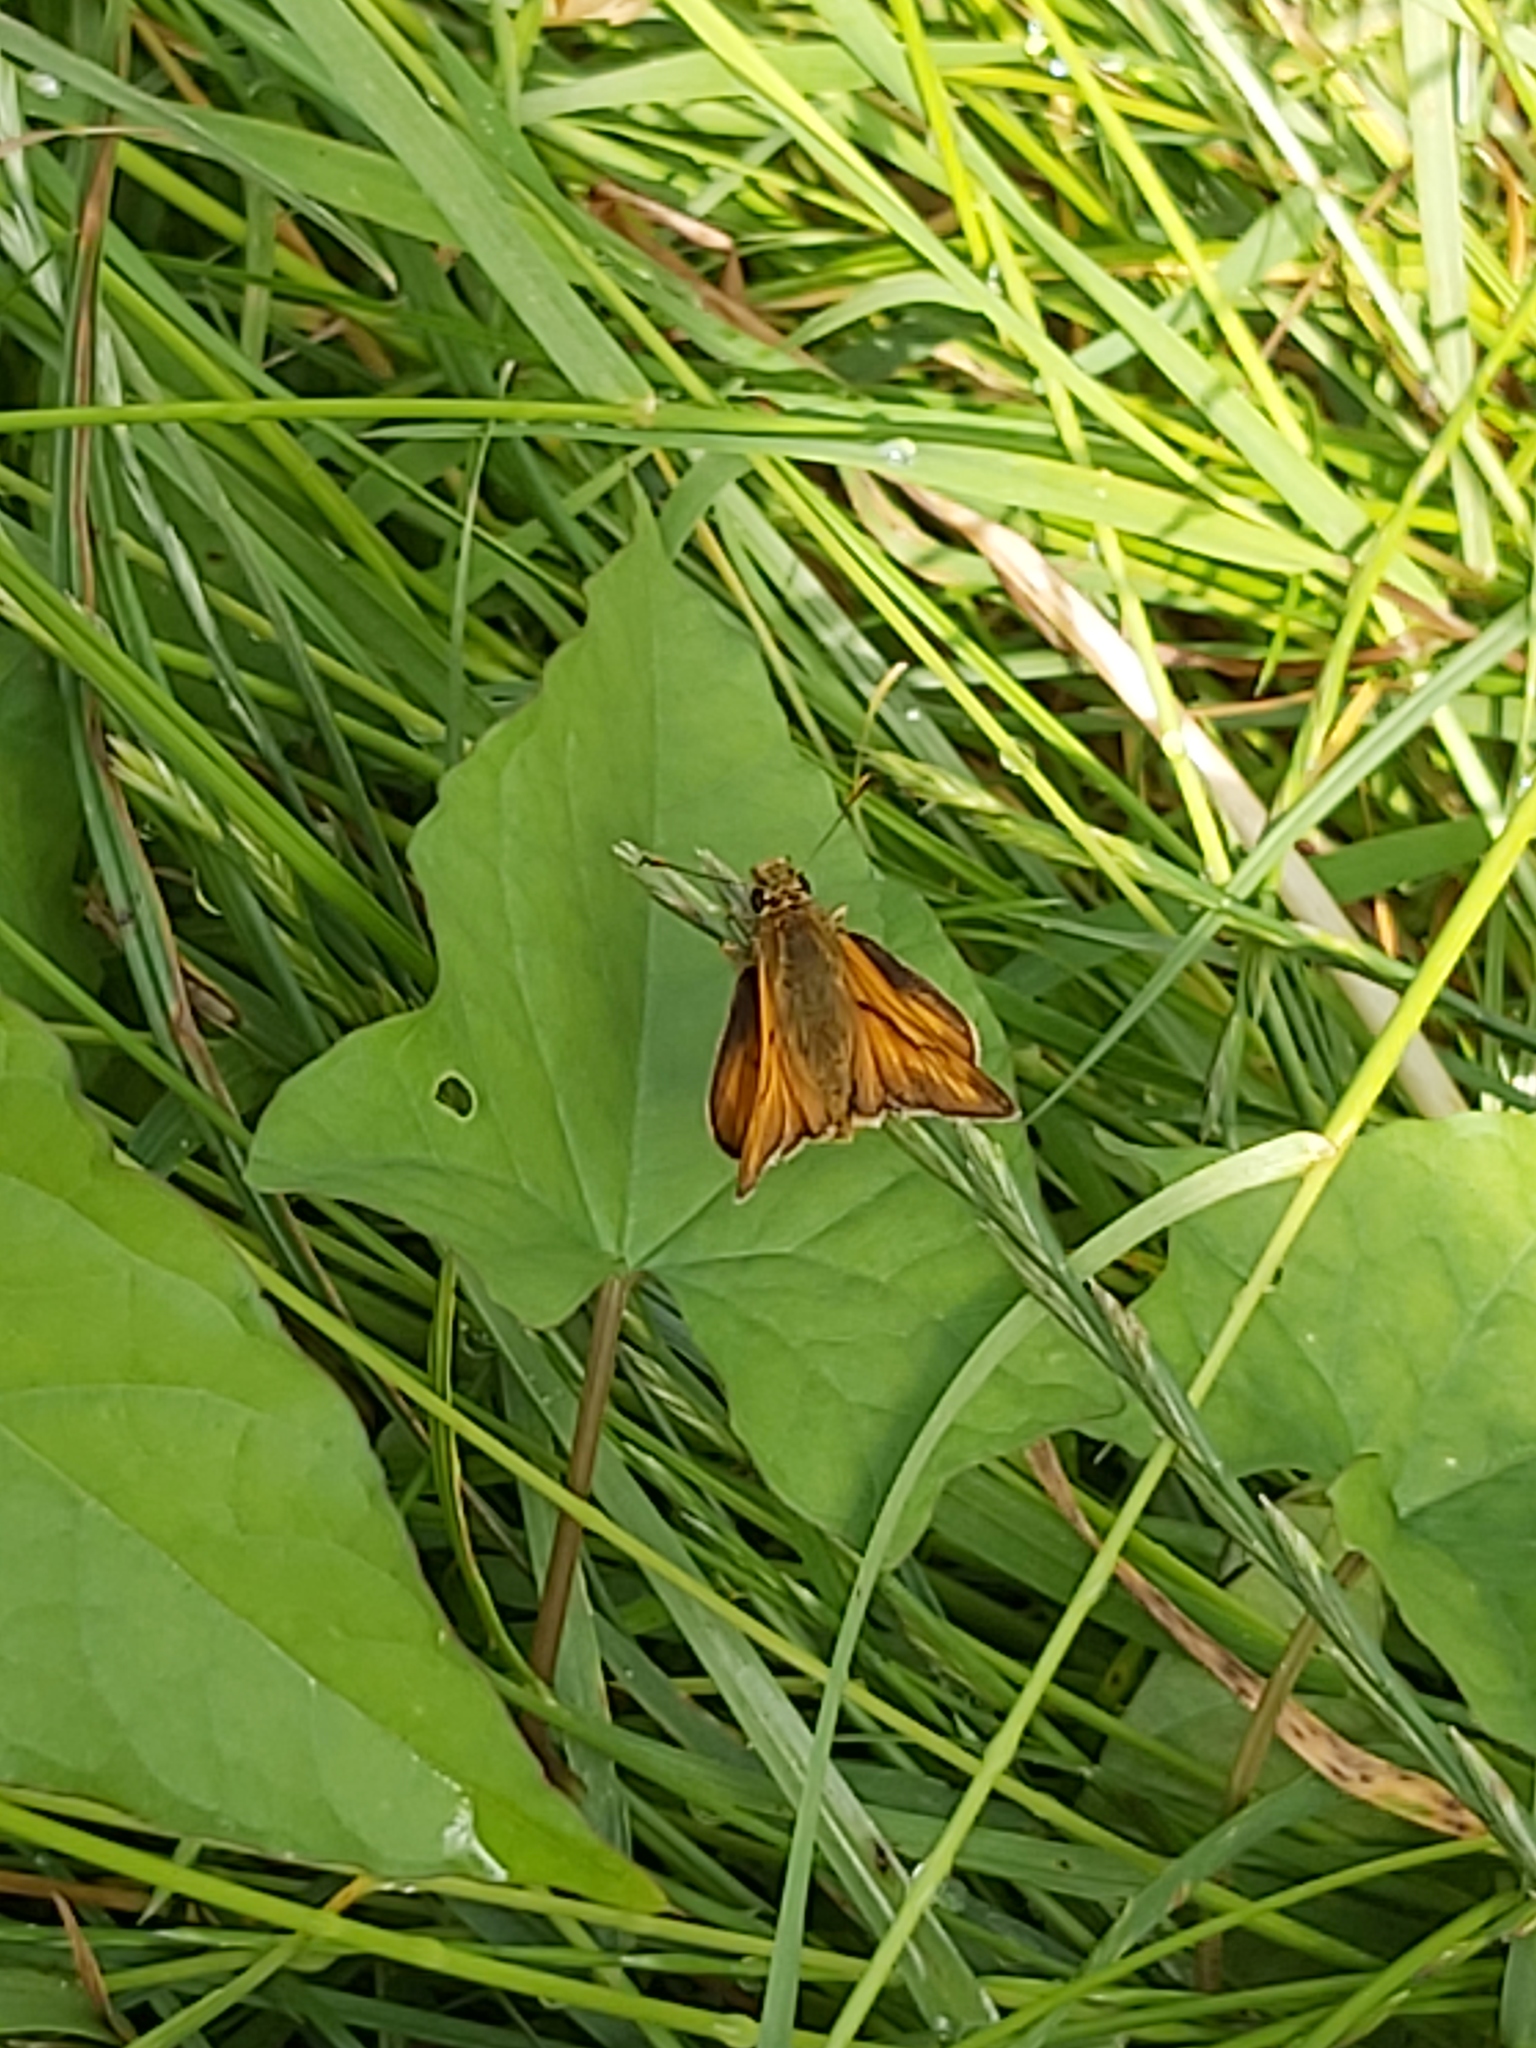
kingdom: Animalia
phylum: Arthropoda
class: Insecta
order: Lepidoptera
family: Hesperiidae
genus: Ochlodes
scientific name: Ochlodes venata
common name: Large skipper
